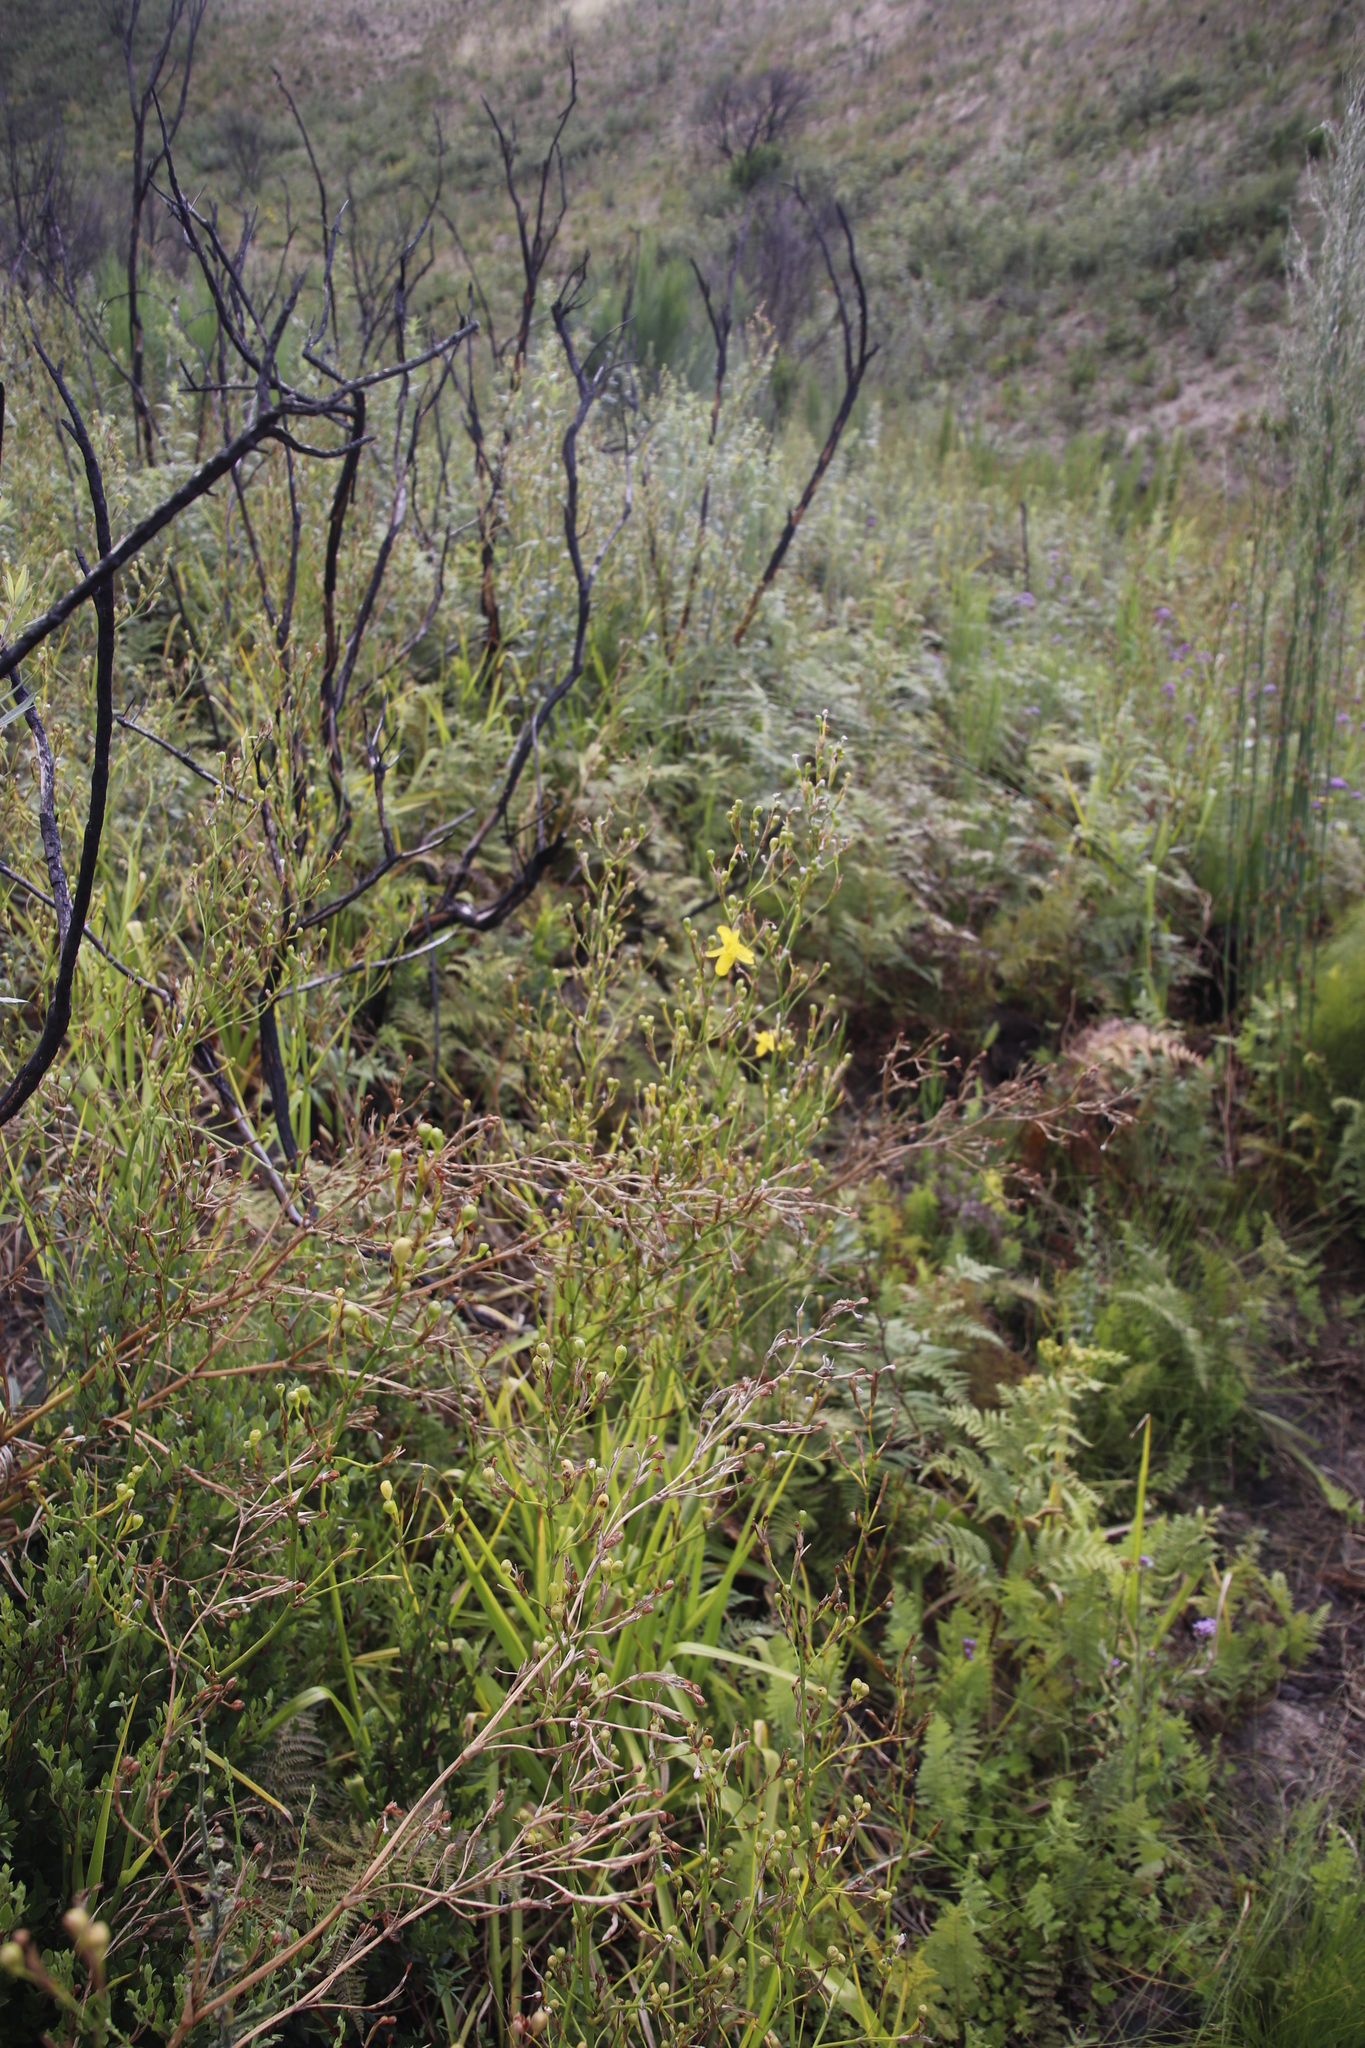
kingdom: Plantae
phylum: Tracheophyta
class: Liliopsida
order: Asparagales
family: Iridaceae
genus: Moraea
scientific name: Moraea ramosissima
